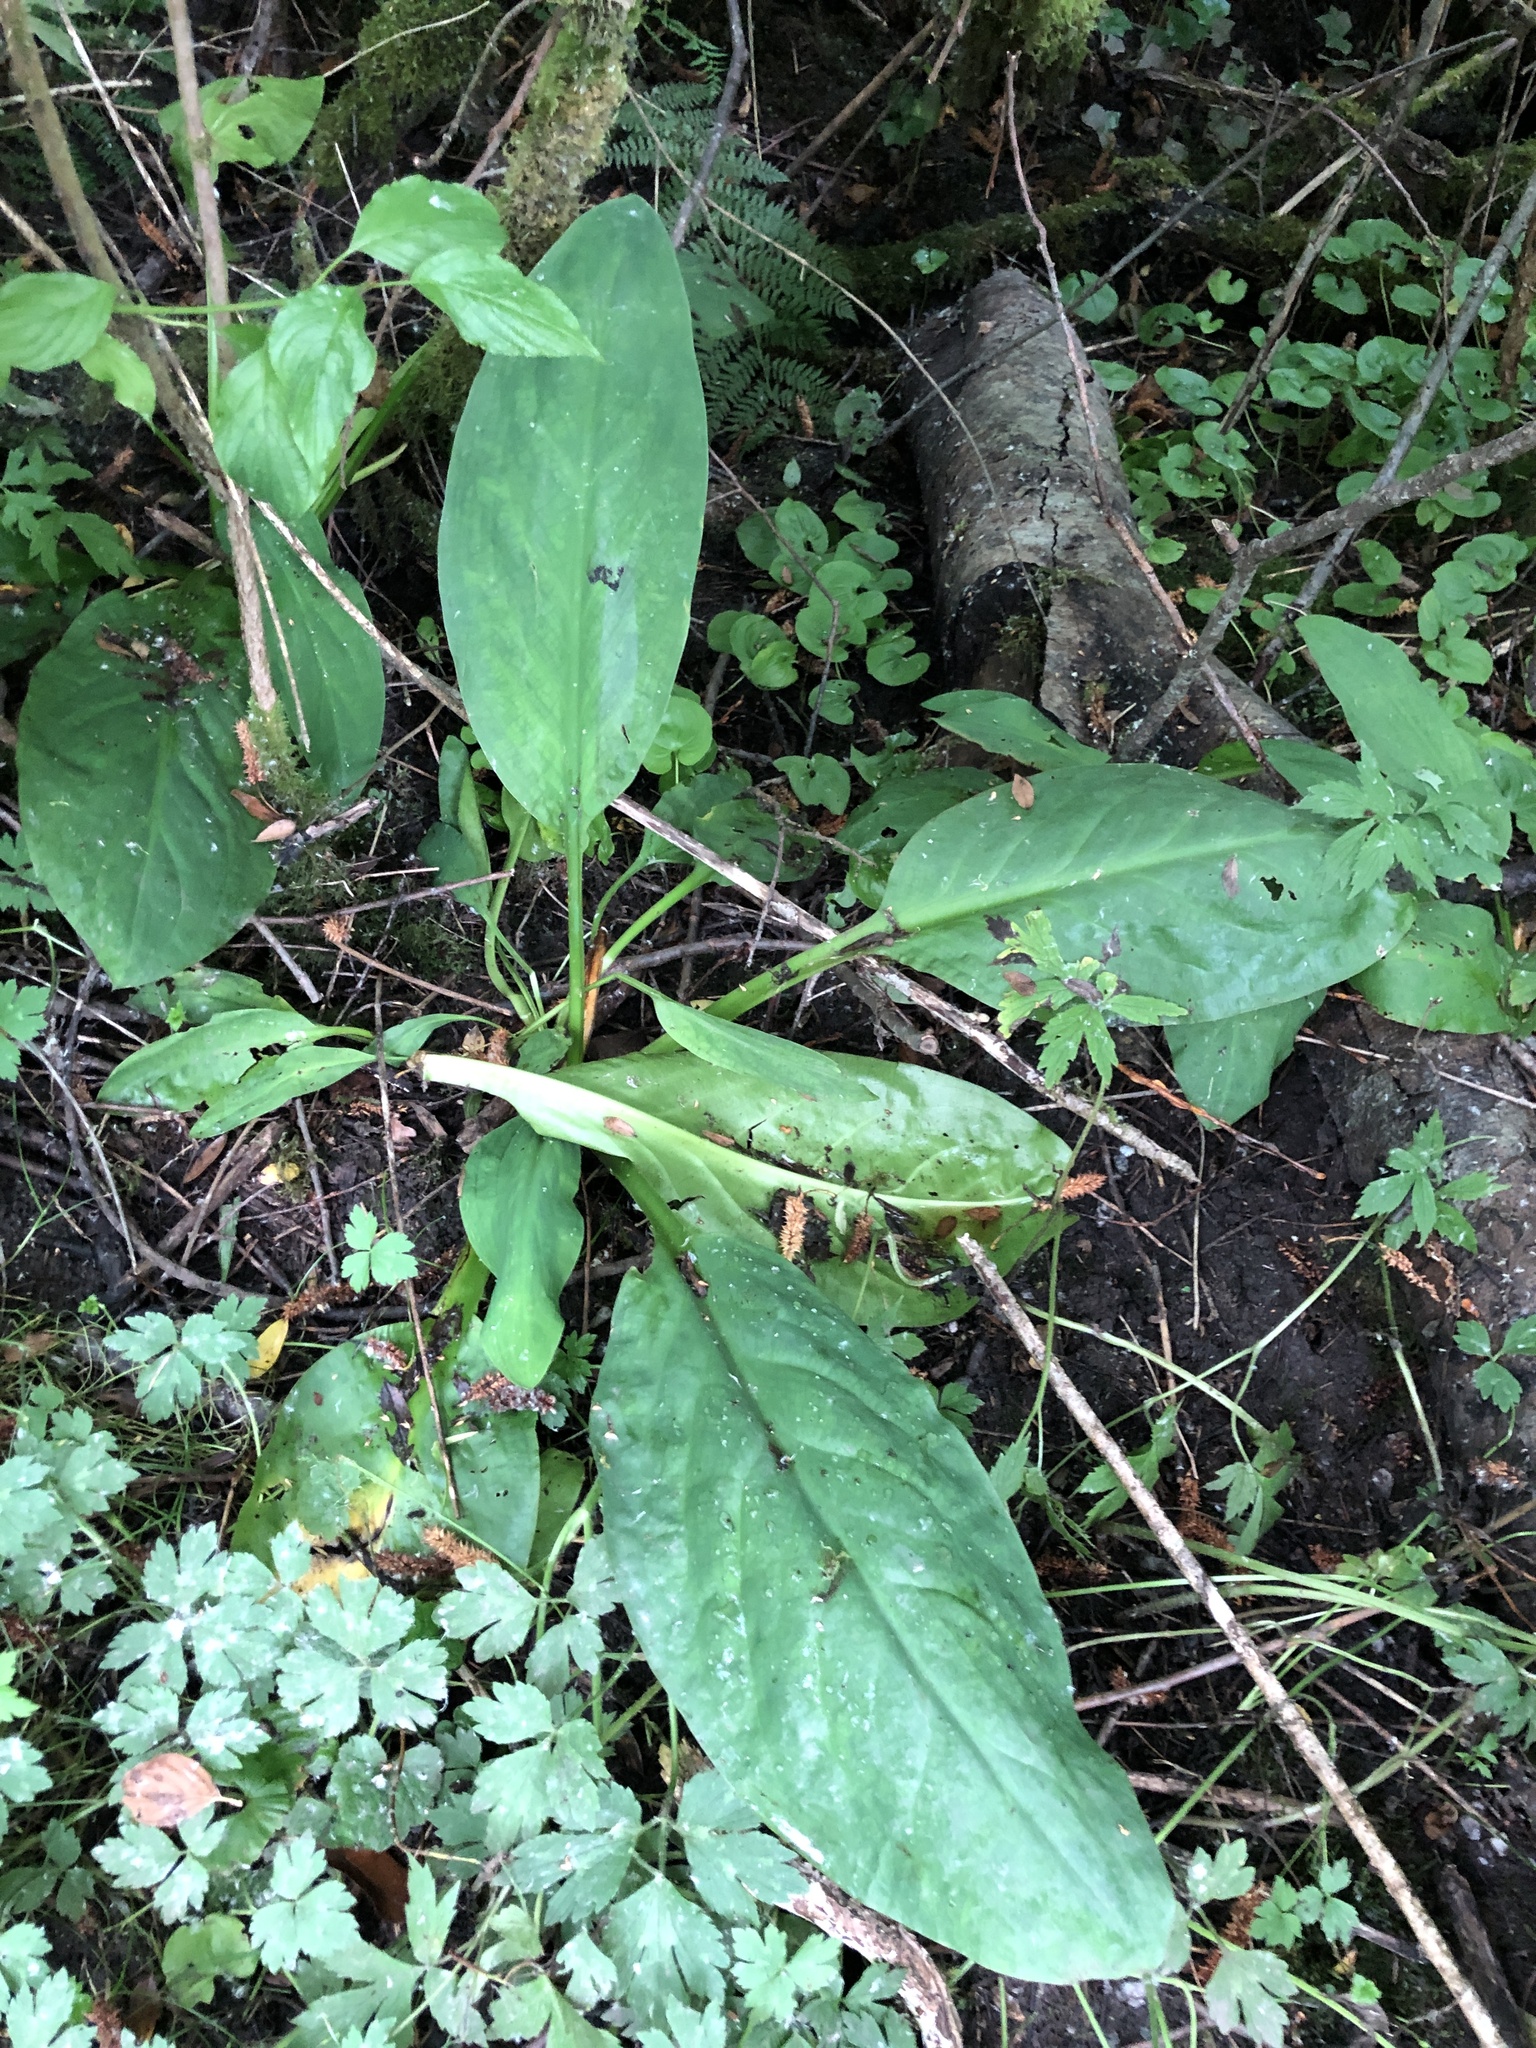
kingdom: Plantae
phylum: Tracheophyta
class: Liliopsida
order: Alismatales
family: Araceae
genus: Lysichiton
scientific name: Lysichiton americanus
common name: American skunk cabbage
